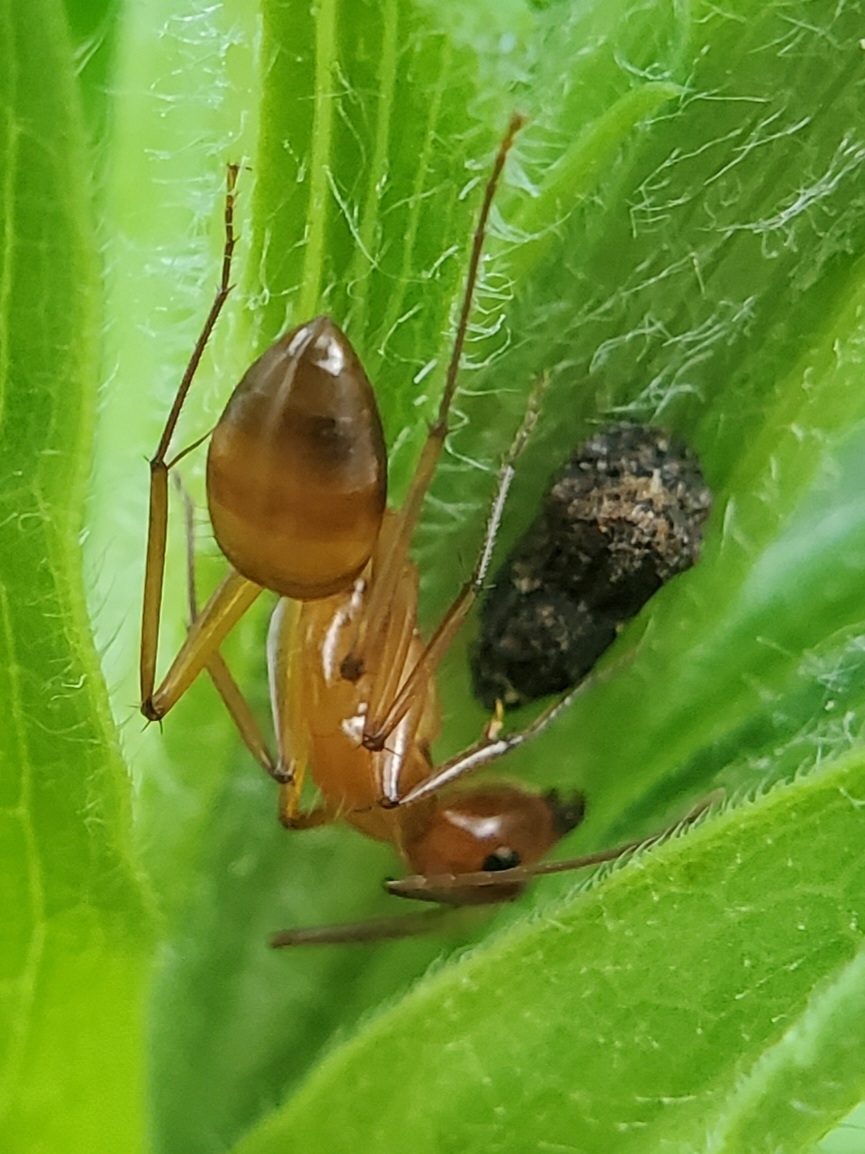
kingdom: Animalia
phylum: Arthropoda
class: Insecta
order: Hymenoptera
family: Formicidae
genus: Camponotus
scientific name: Camponotus castaneus
